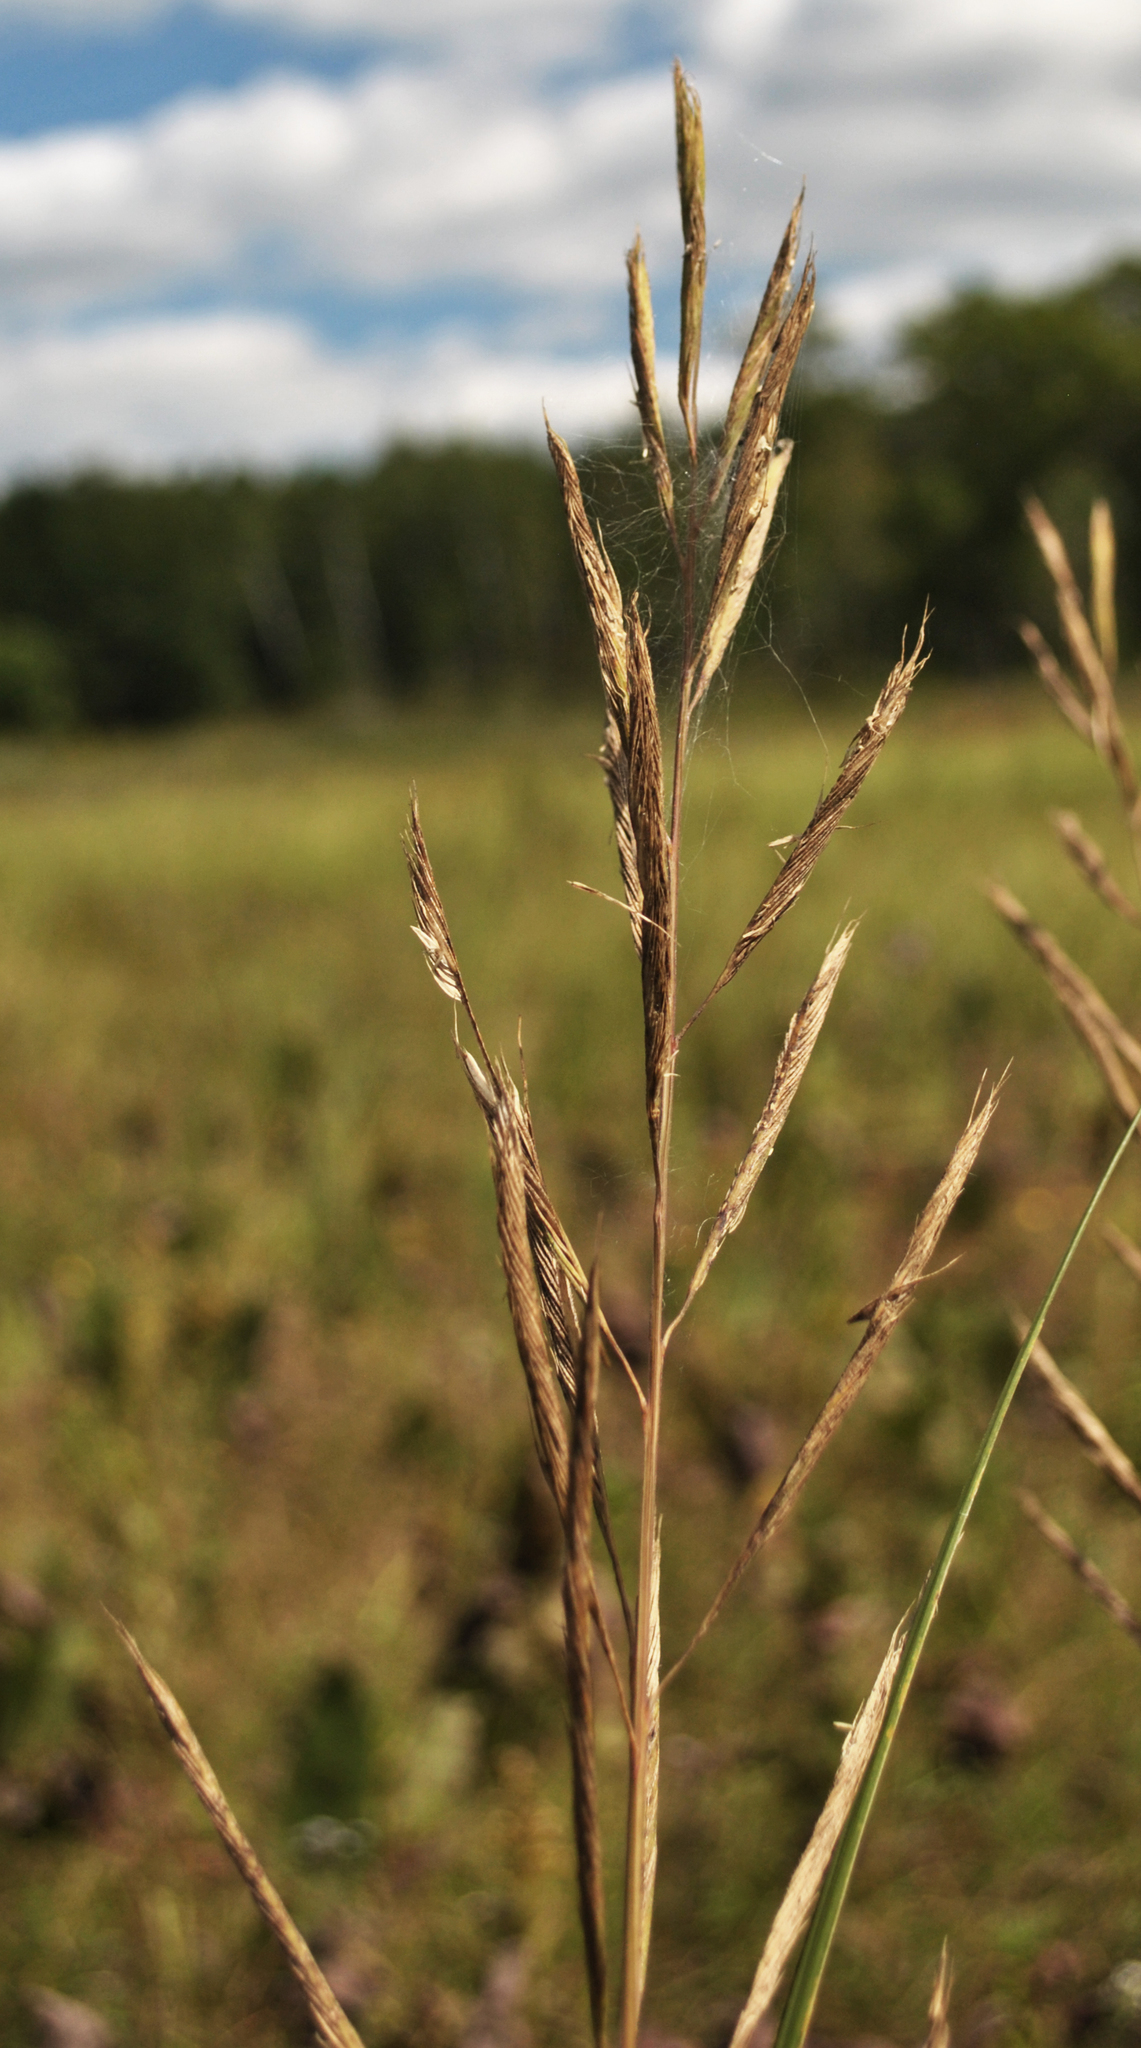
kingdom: Plantae
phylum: Tracheophyta
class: Liliopsida
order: Poales
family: Poaceae
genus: Sporobolus
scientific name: Sporobolus michauxianus
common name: Freshwater cordgrass
